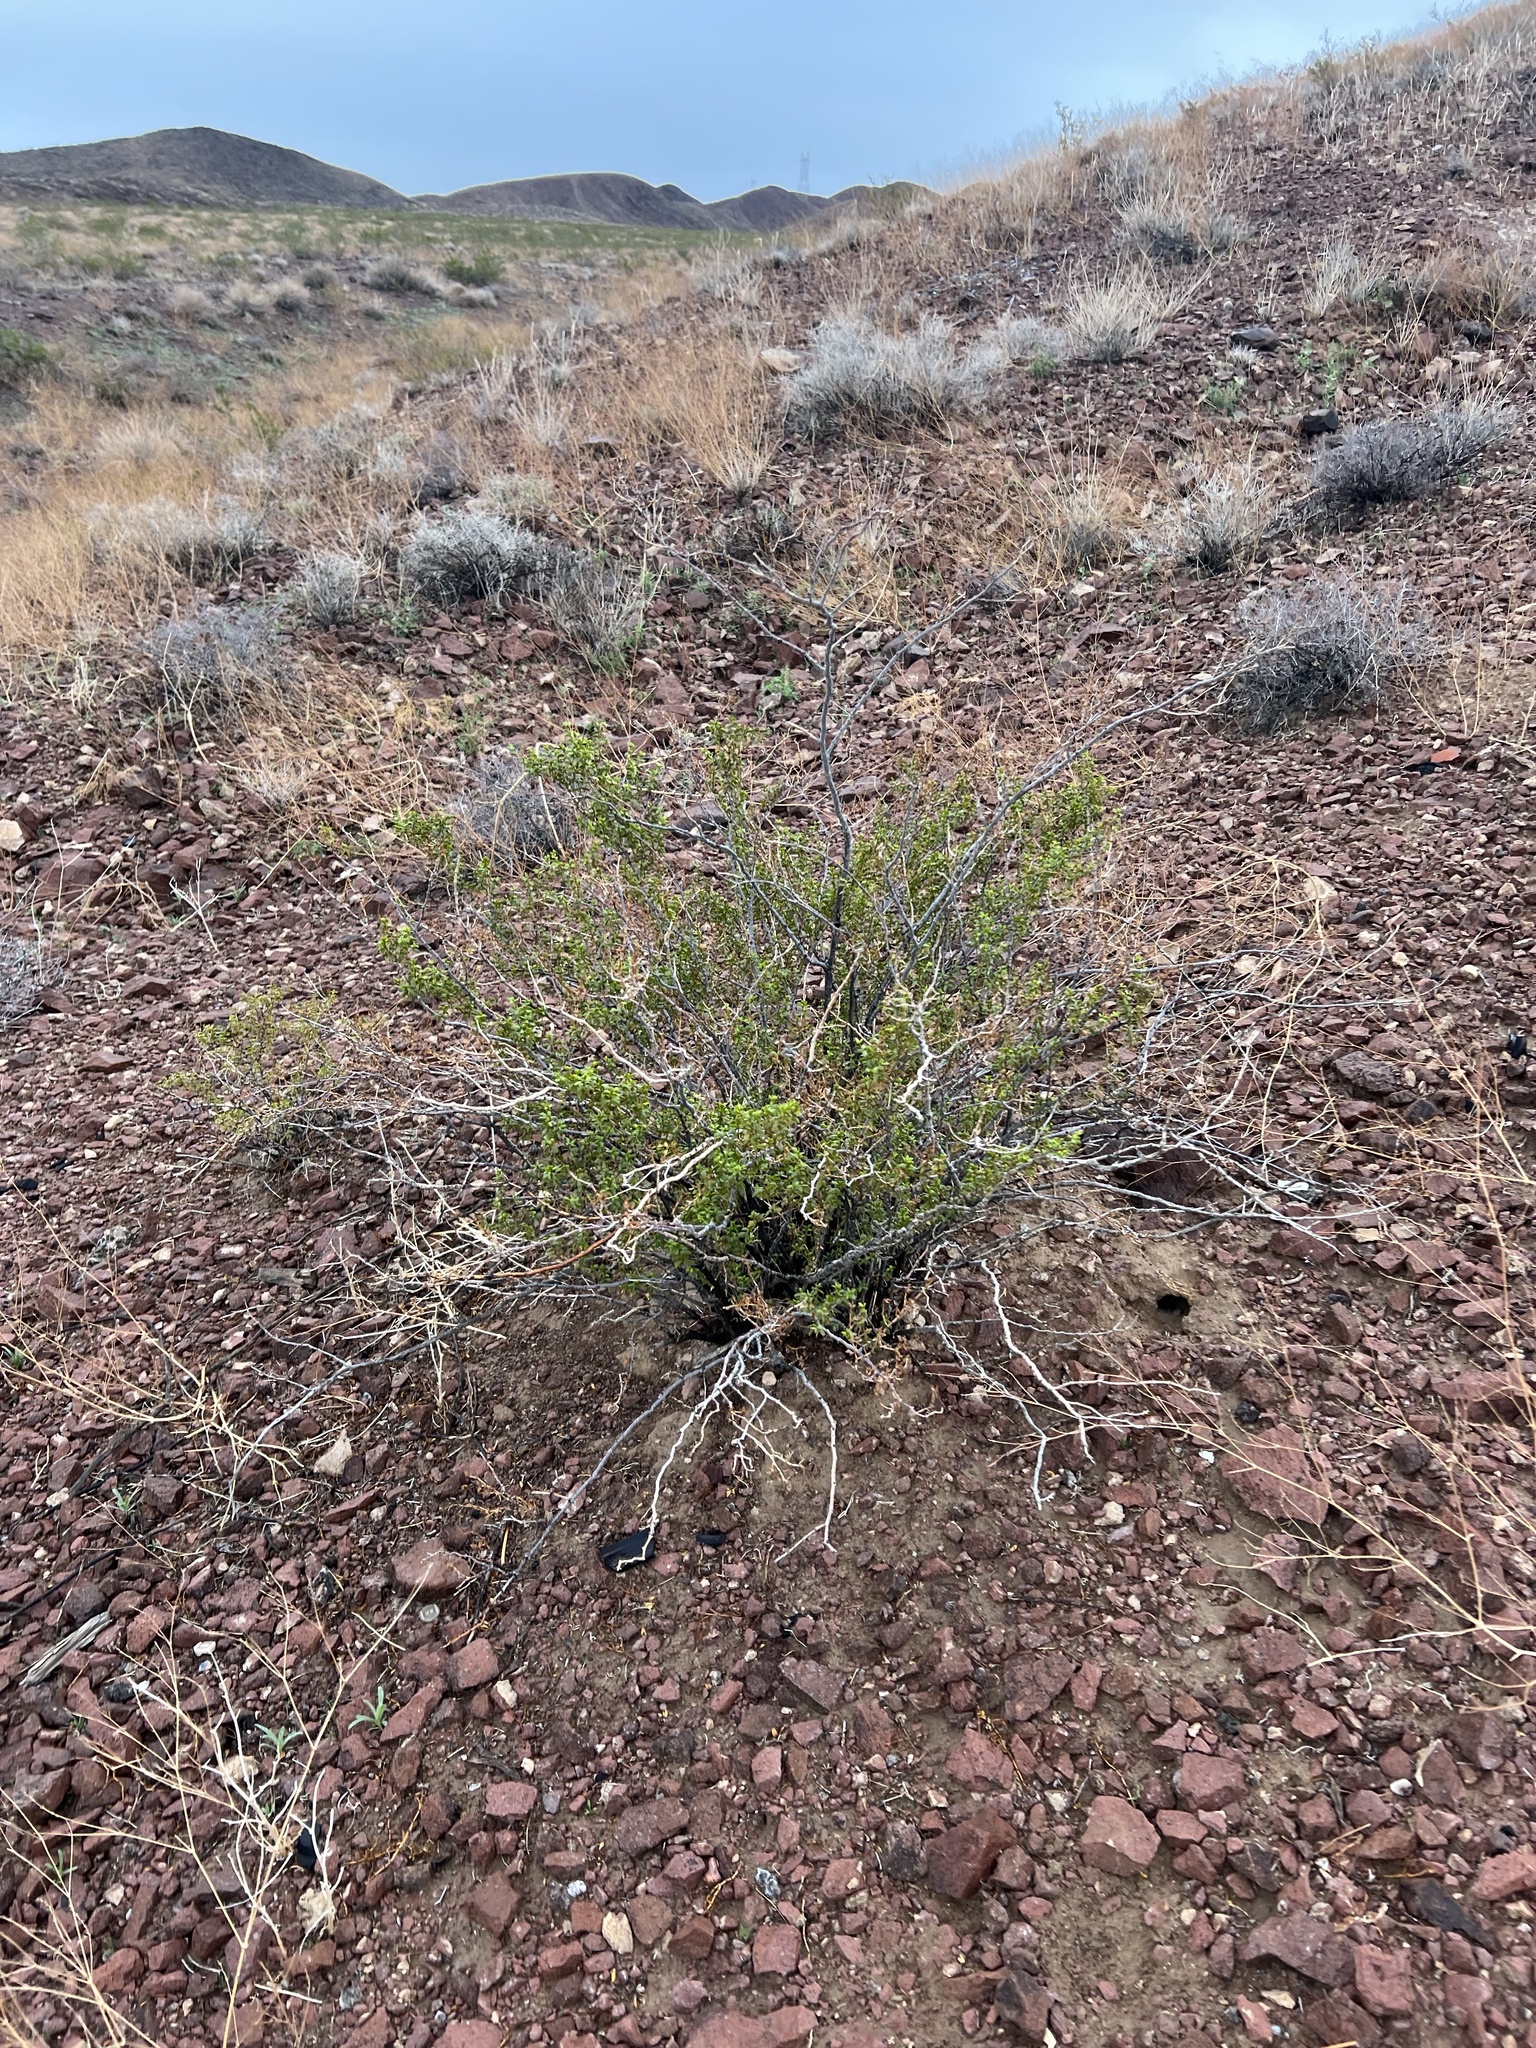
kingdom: Plantae
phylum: Tracheophyta
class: Magnoliopsida
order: Zygophyllales
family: Zygophyllaceae
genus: Larrea
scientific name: Larrea tridentata
